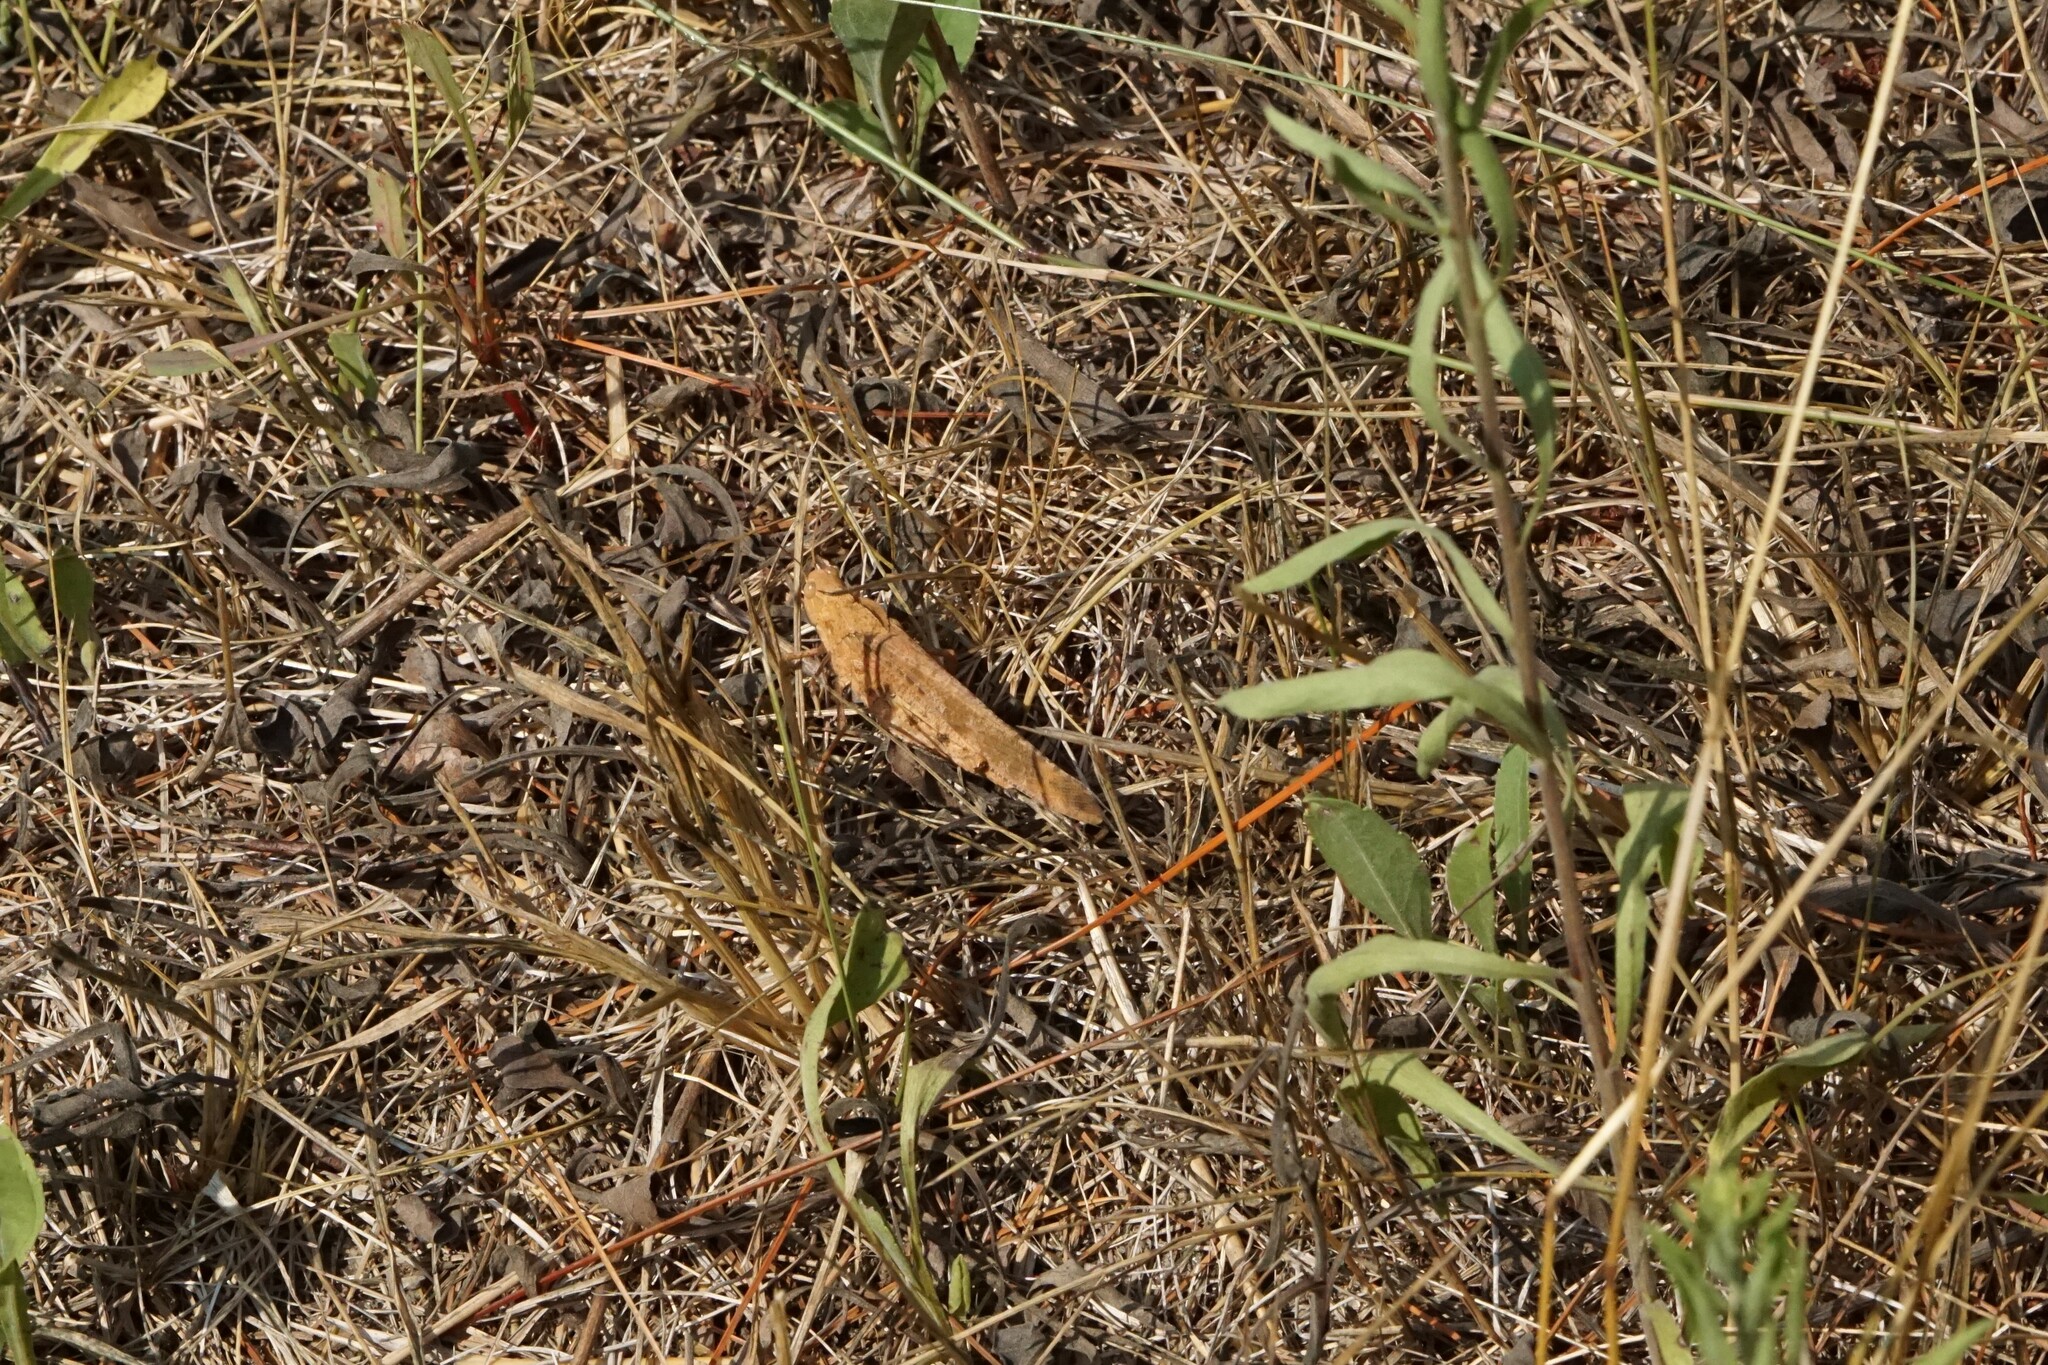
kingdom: Animalia
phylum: Arthropoda
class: Insecta
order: Orthoptera
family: Acrididae
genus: Dissosteira
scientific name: Dissosteira carolina
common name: Carolina grasshopper
